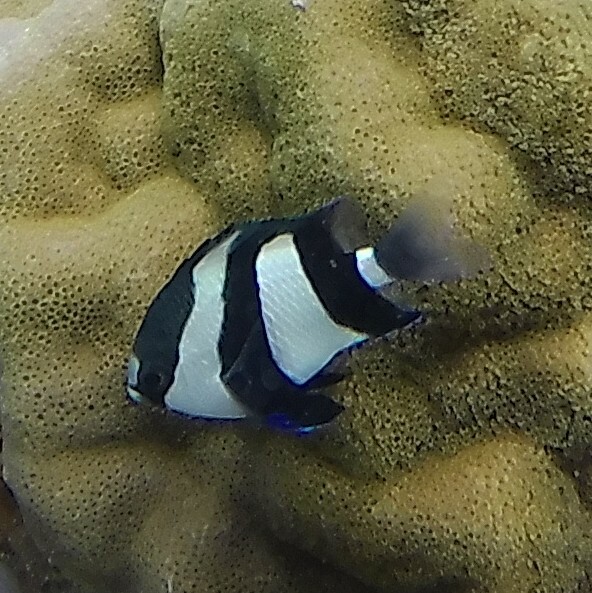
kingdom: Animalia
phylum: Chordata
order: Perciformes
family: Pomacentridae
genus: Dascyllus
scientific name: Dascyllus abudafur
